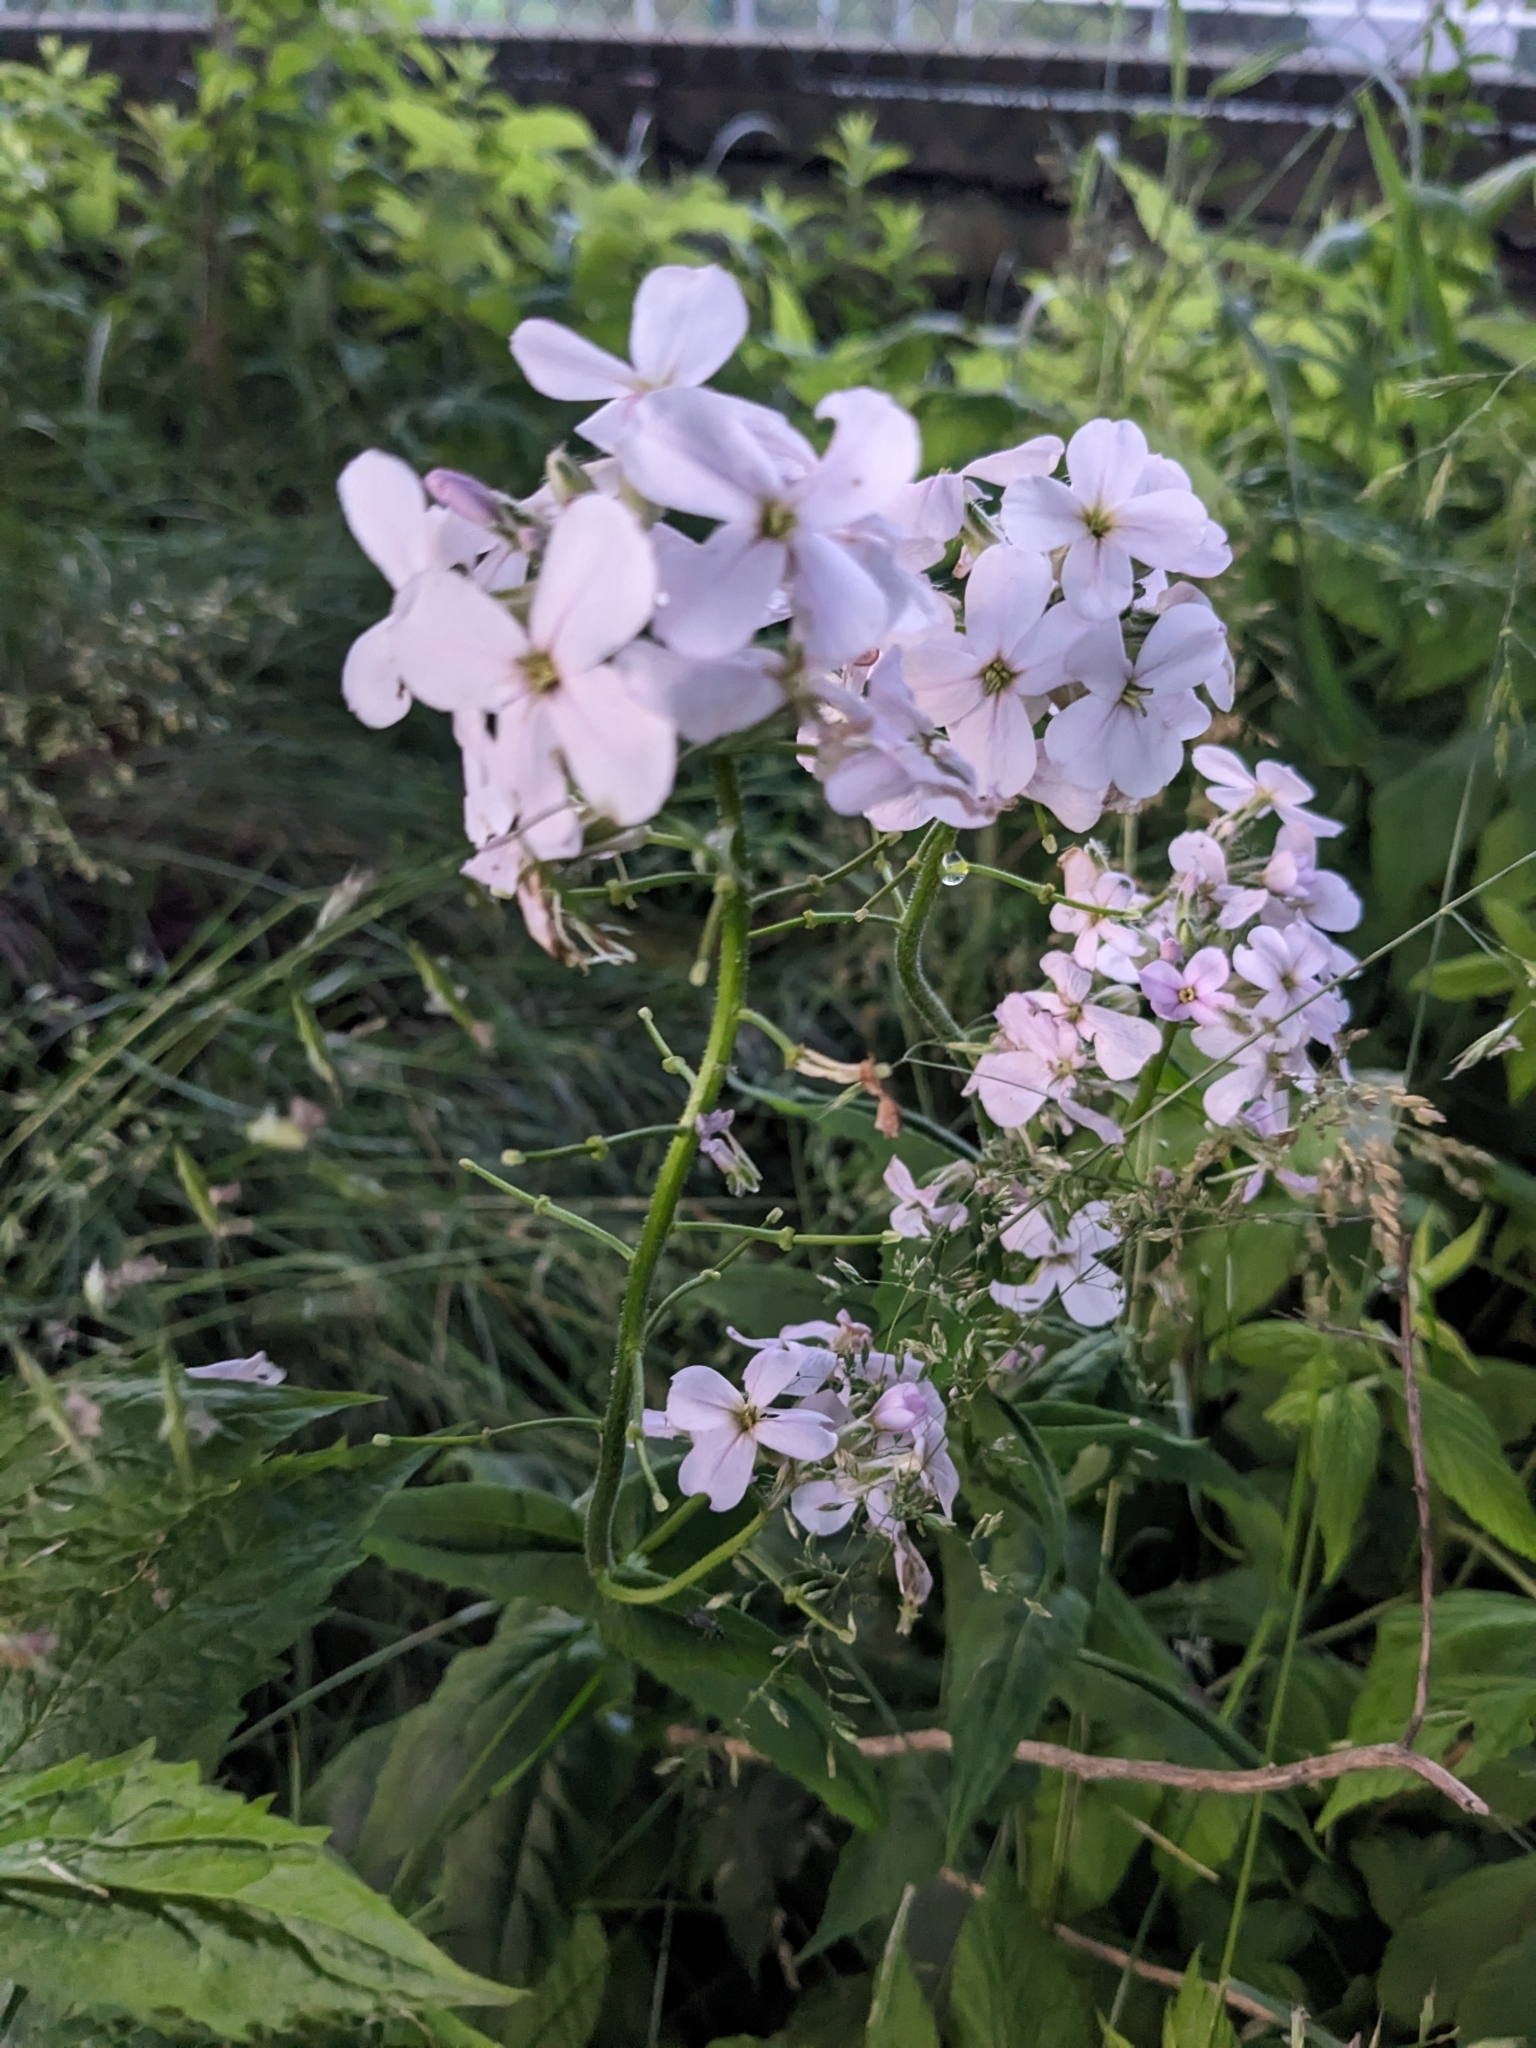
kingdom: Plantae
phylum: Tracheophyta
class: Magnoliopsida
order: Brassicales
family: Brassicaceae
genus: Hesperis
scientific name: Hesperis matronalis
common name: Dame's-violet
